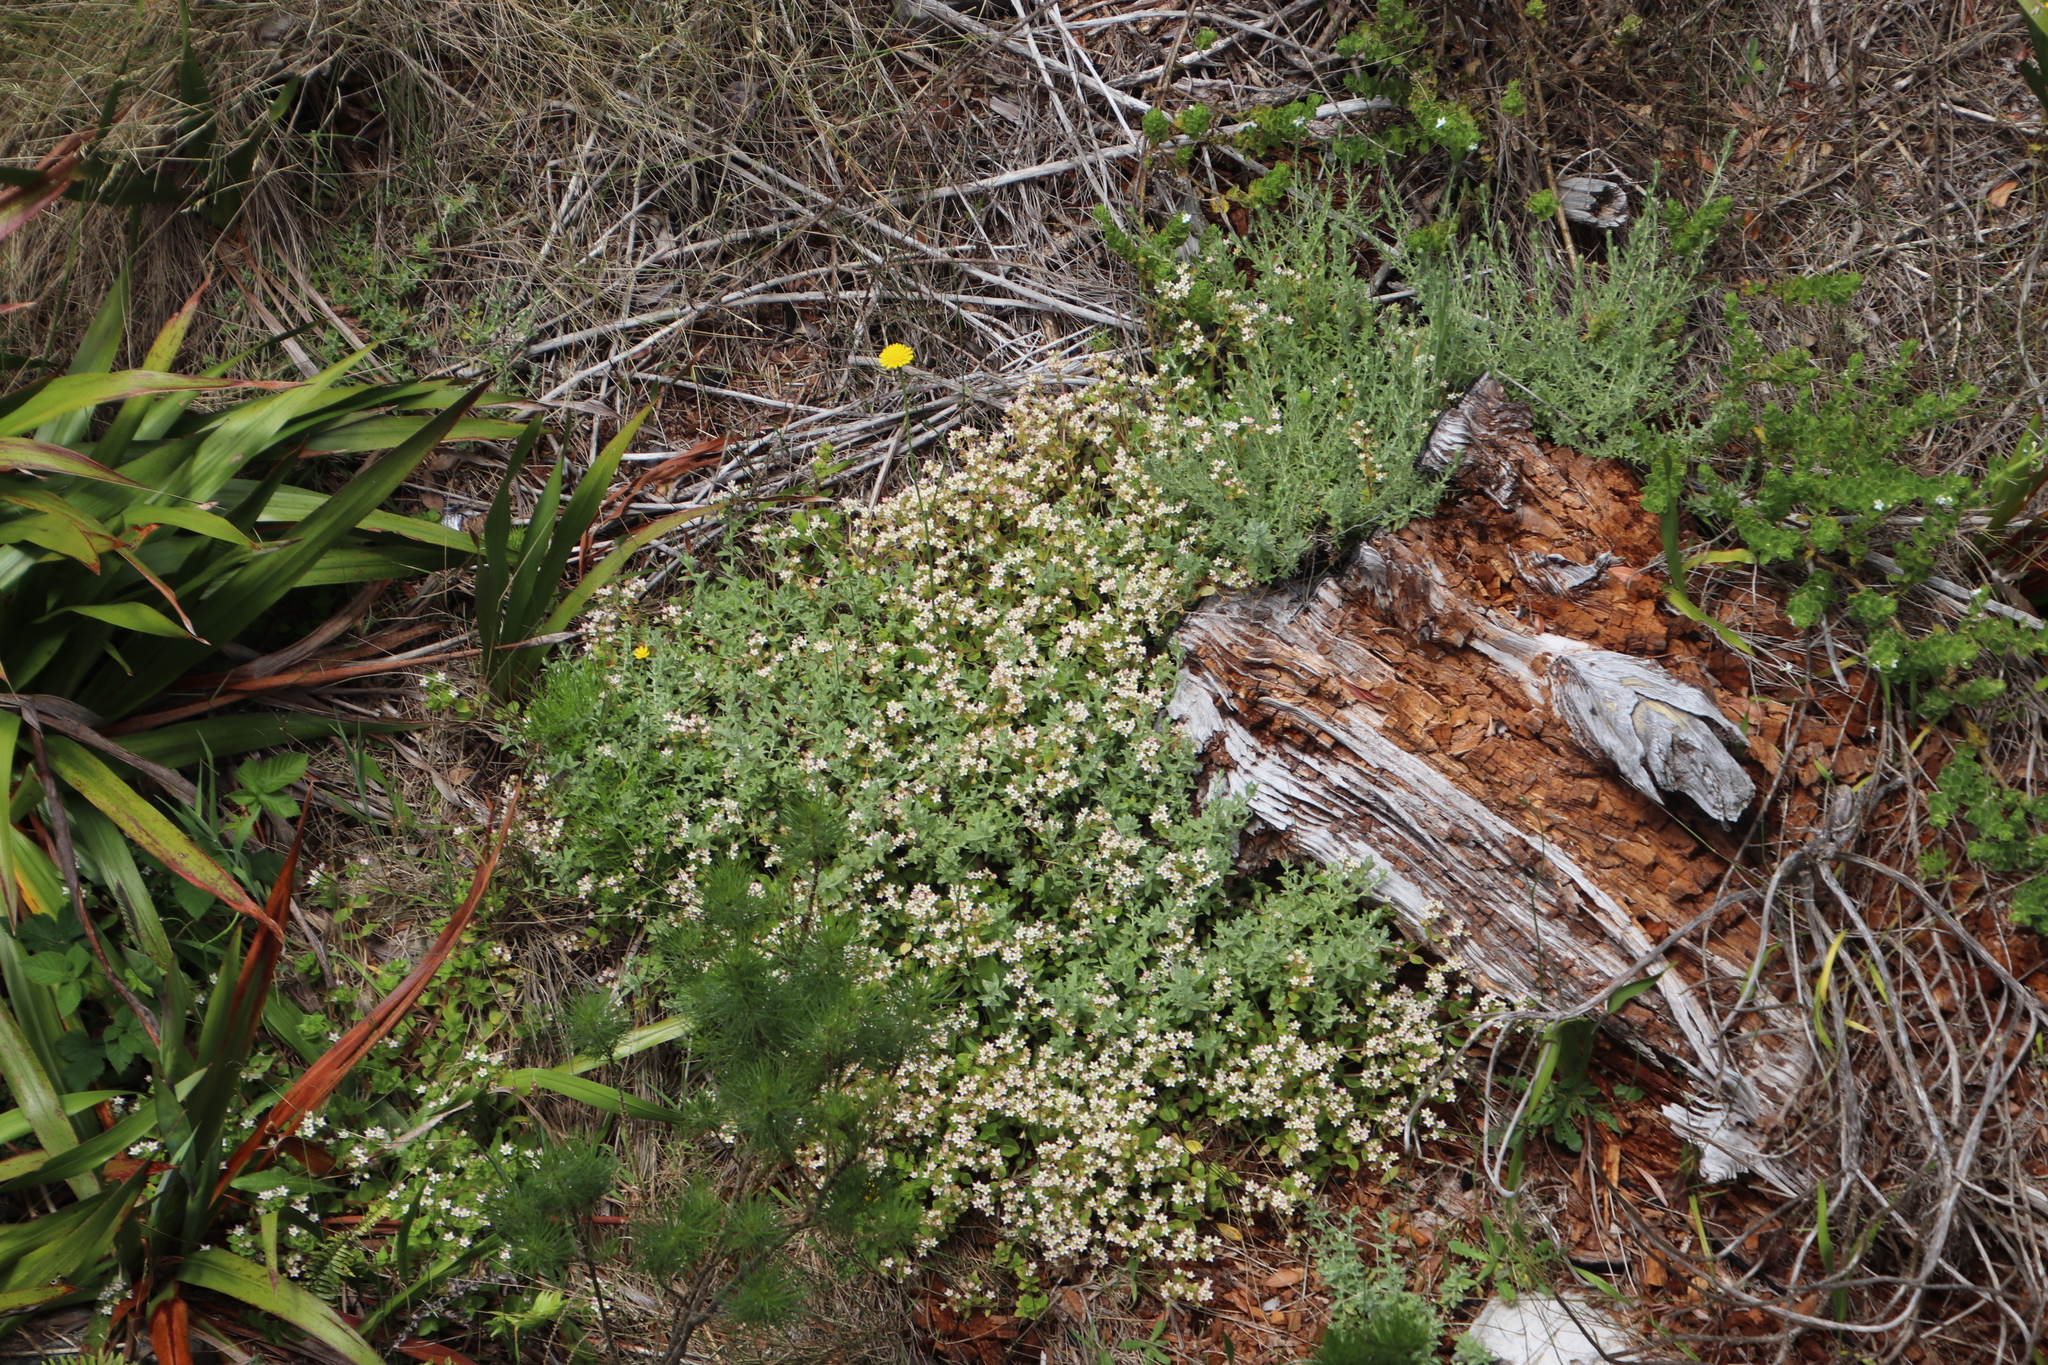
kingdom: Plantae
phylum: Tracheophyta
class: Magnoliopsida
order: Saxifragales
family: Crassulaceae
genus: Crassula
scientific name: Crassula pellucida
